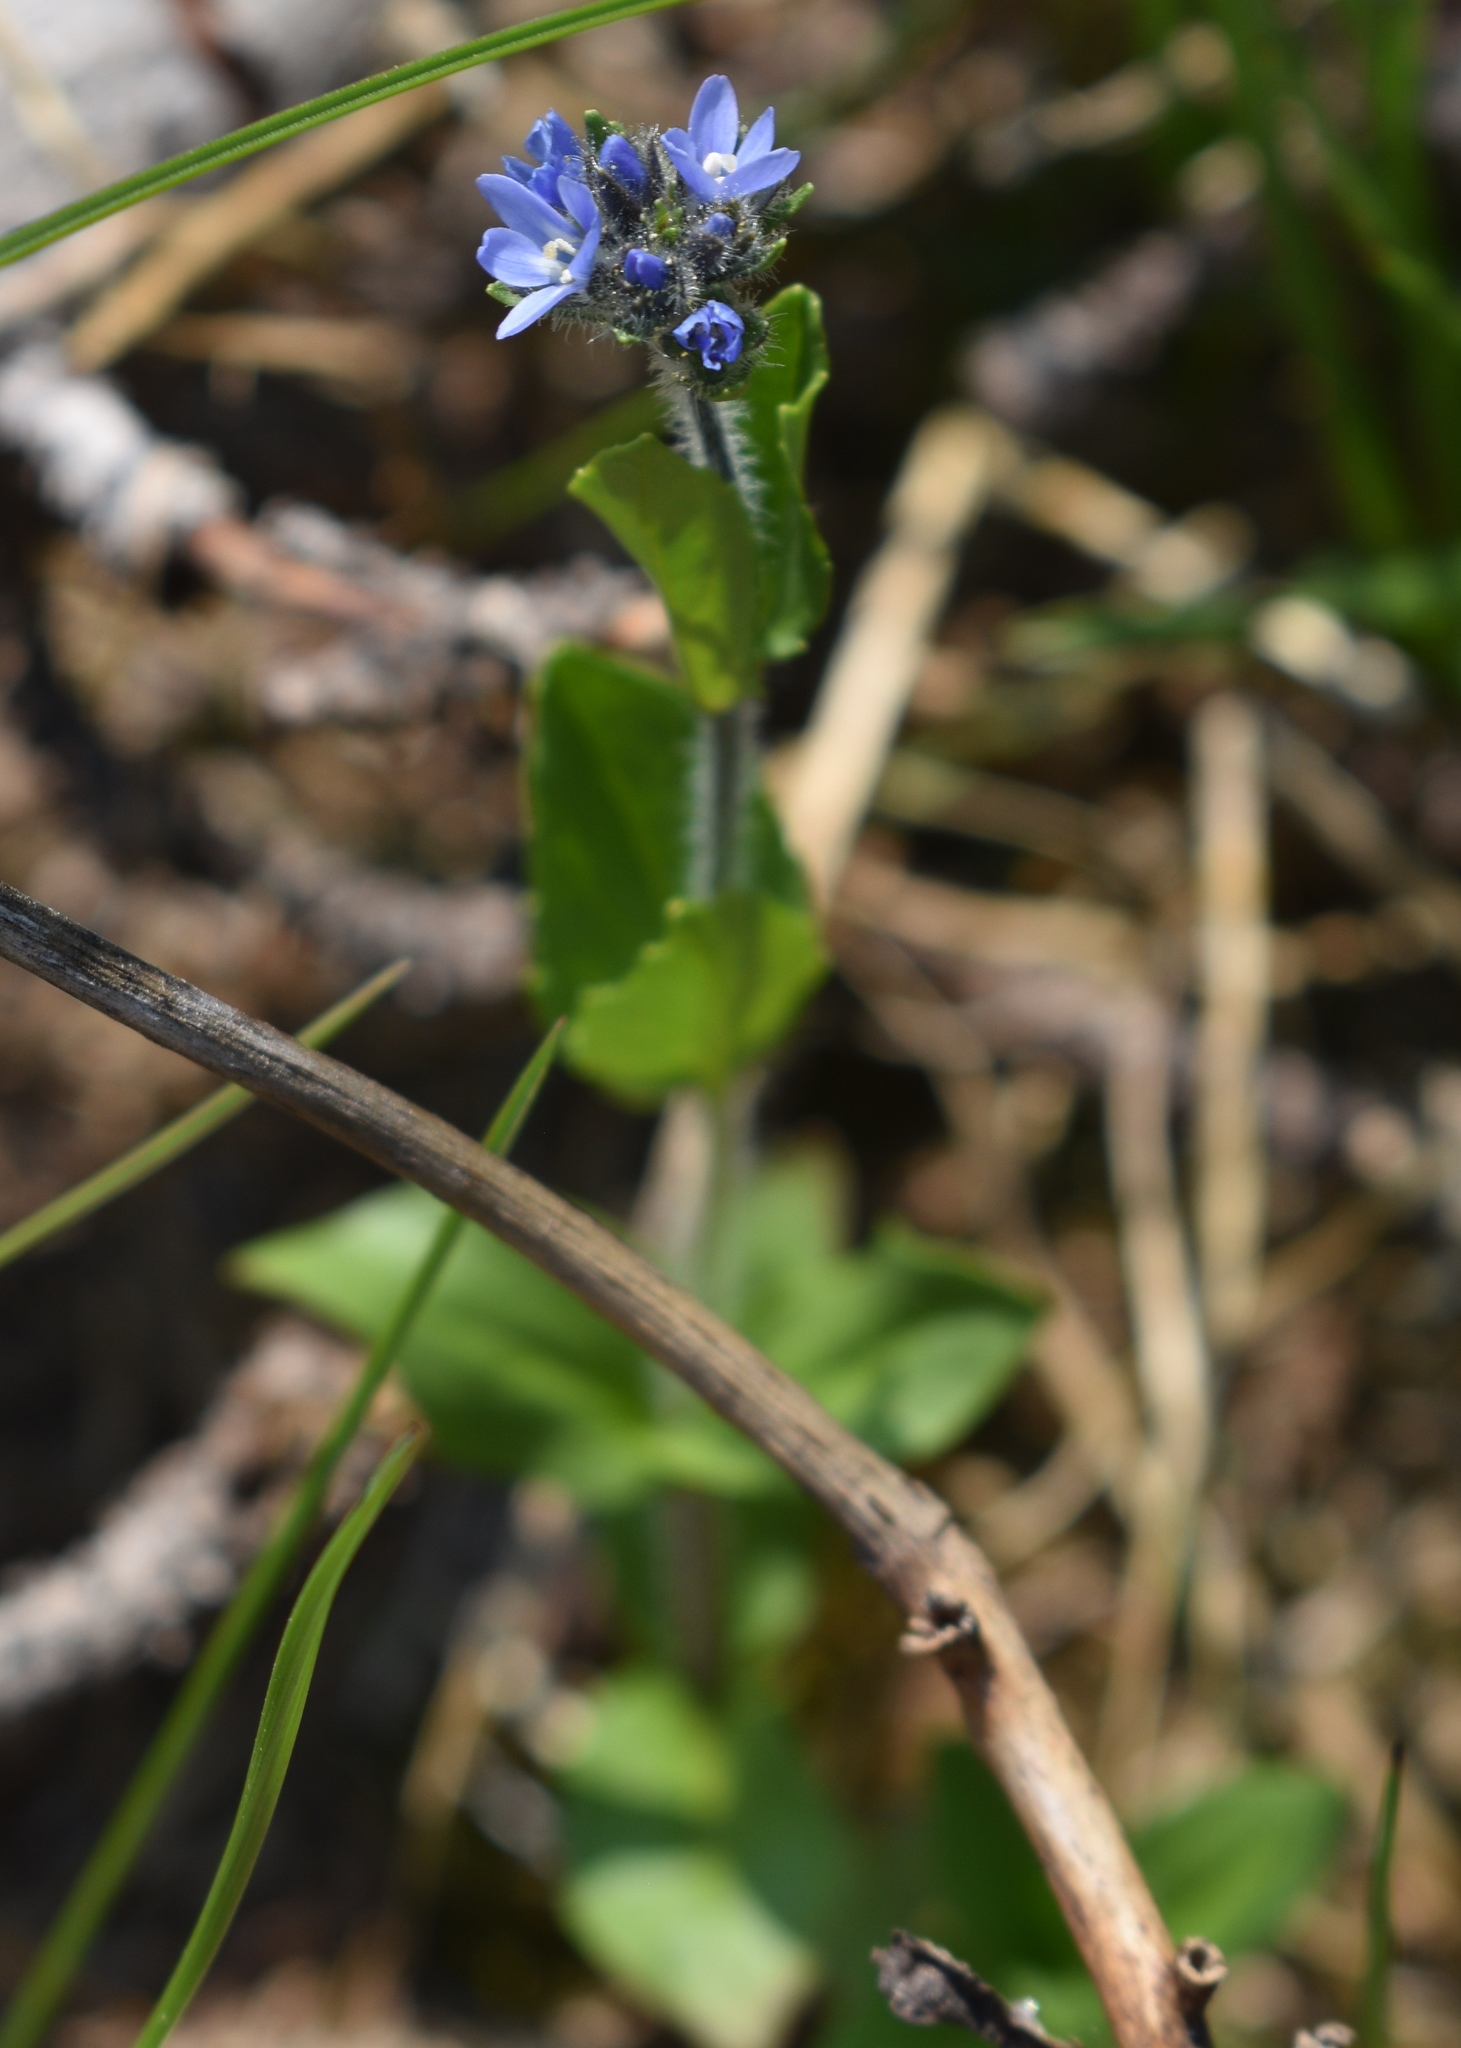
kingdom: Plantae
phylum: Tracheophyta
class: Magnoliopsida
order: Lamiales
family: Plantaginaceae
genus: Veronica
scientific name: Veronica wormskjoldii
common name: American alpine speedwell
